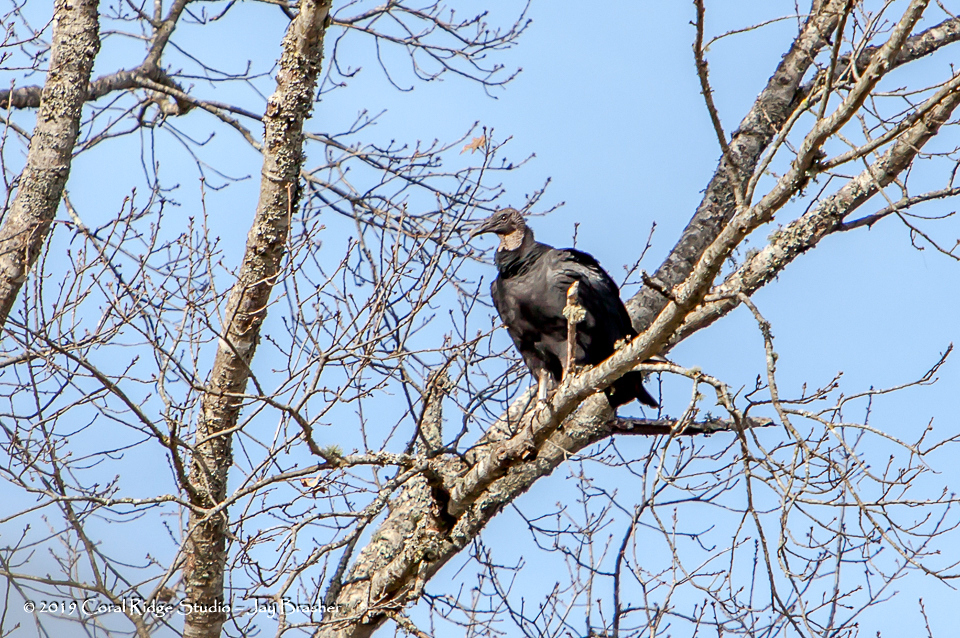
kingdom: Animalia
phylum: Chordata
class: Aves
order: Accipitriformes
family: Cathartidae
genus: Coragyps
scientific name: Coragyps atratus
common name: Black vulture
